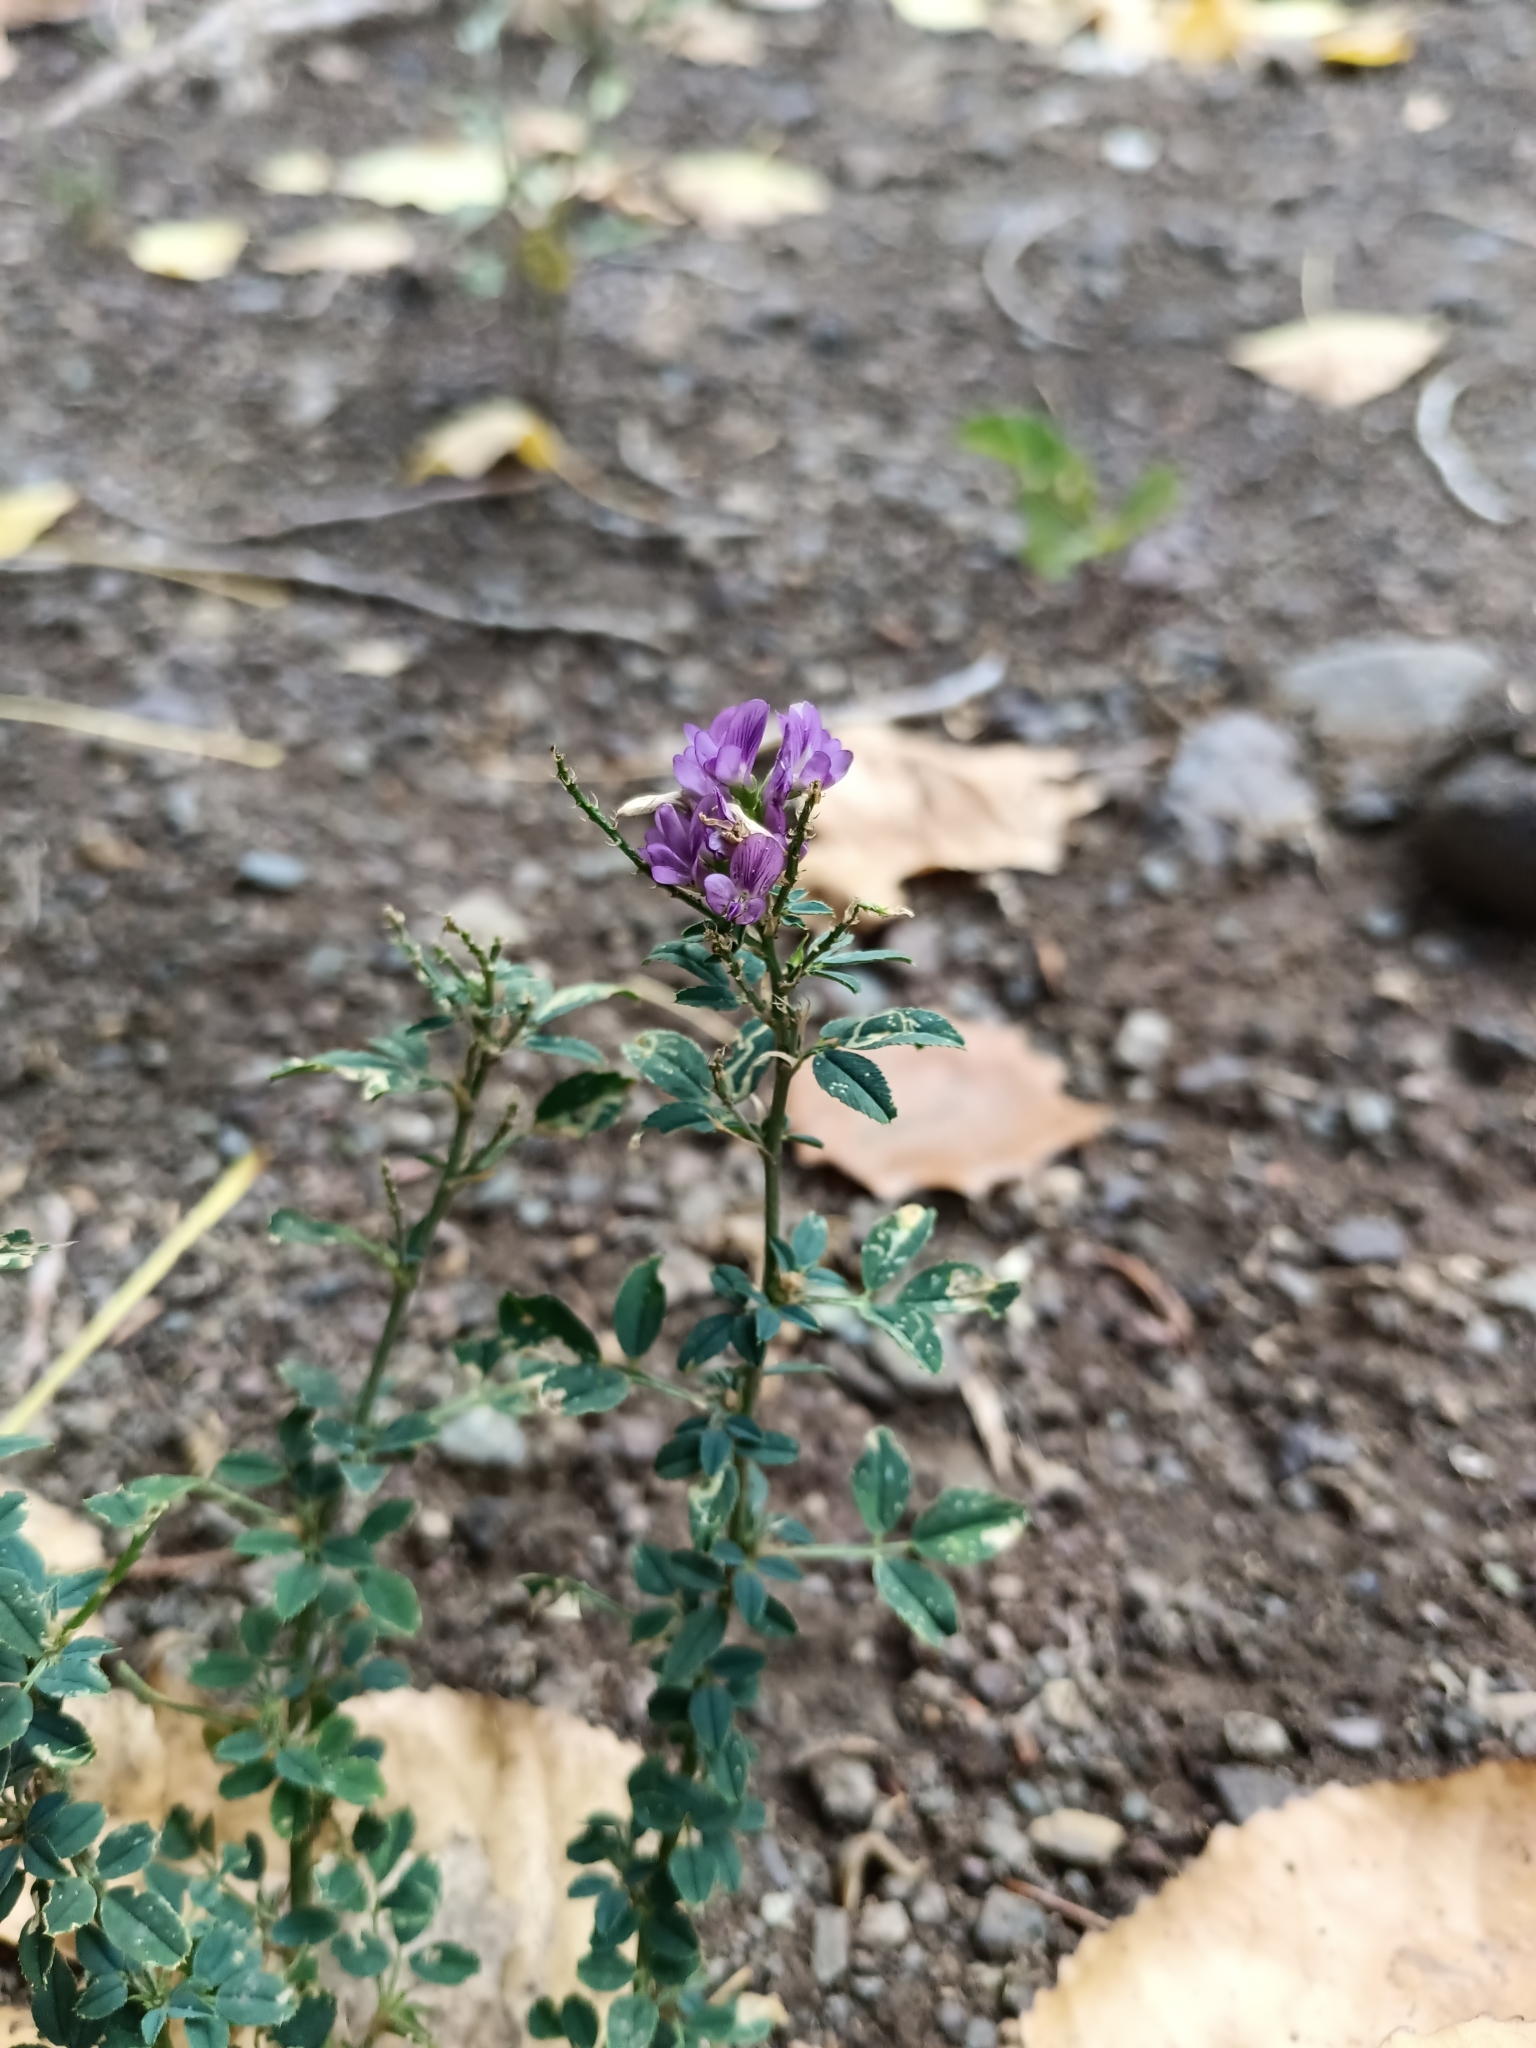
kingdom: Plantae
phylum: Tracheophyta
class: Magnoliopsida
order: Fabales
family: Fabaceae
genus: Medicago
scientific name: Medicago sativa
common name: Alfalfa
